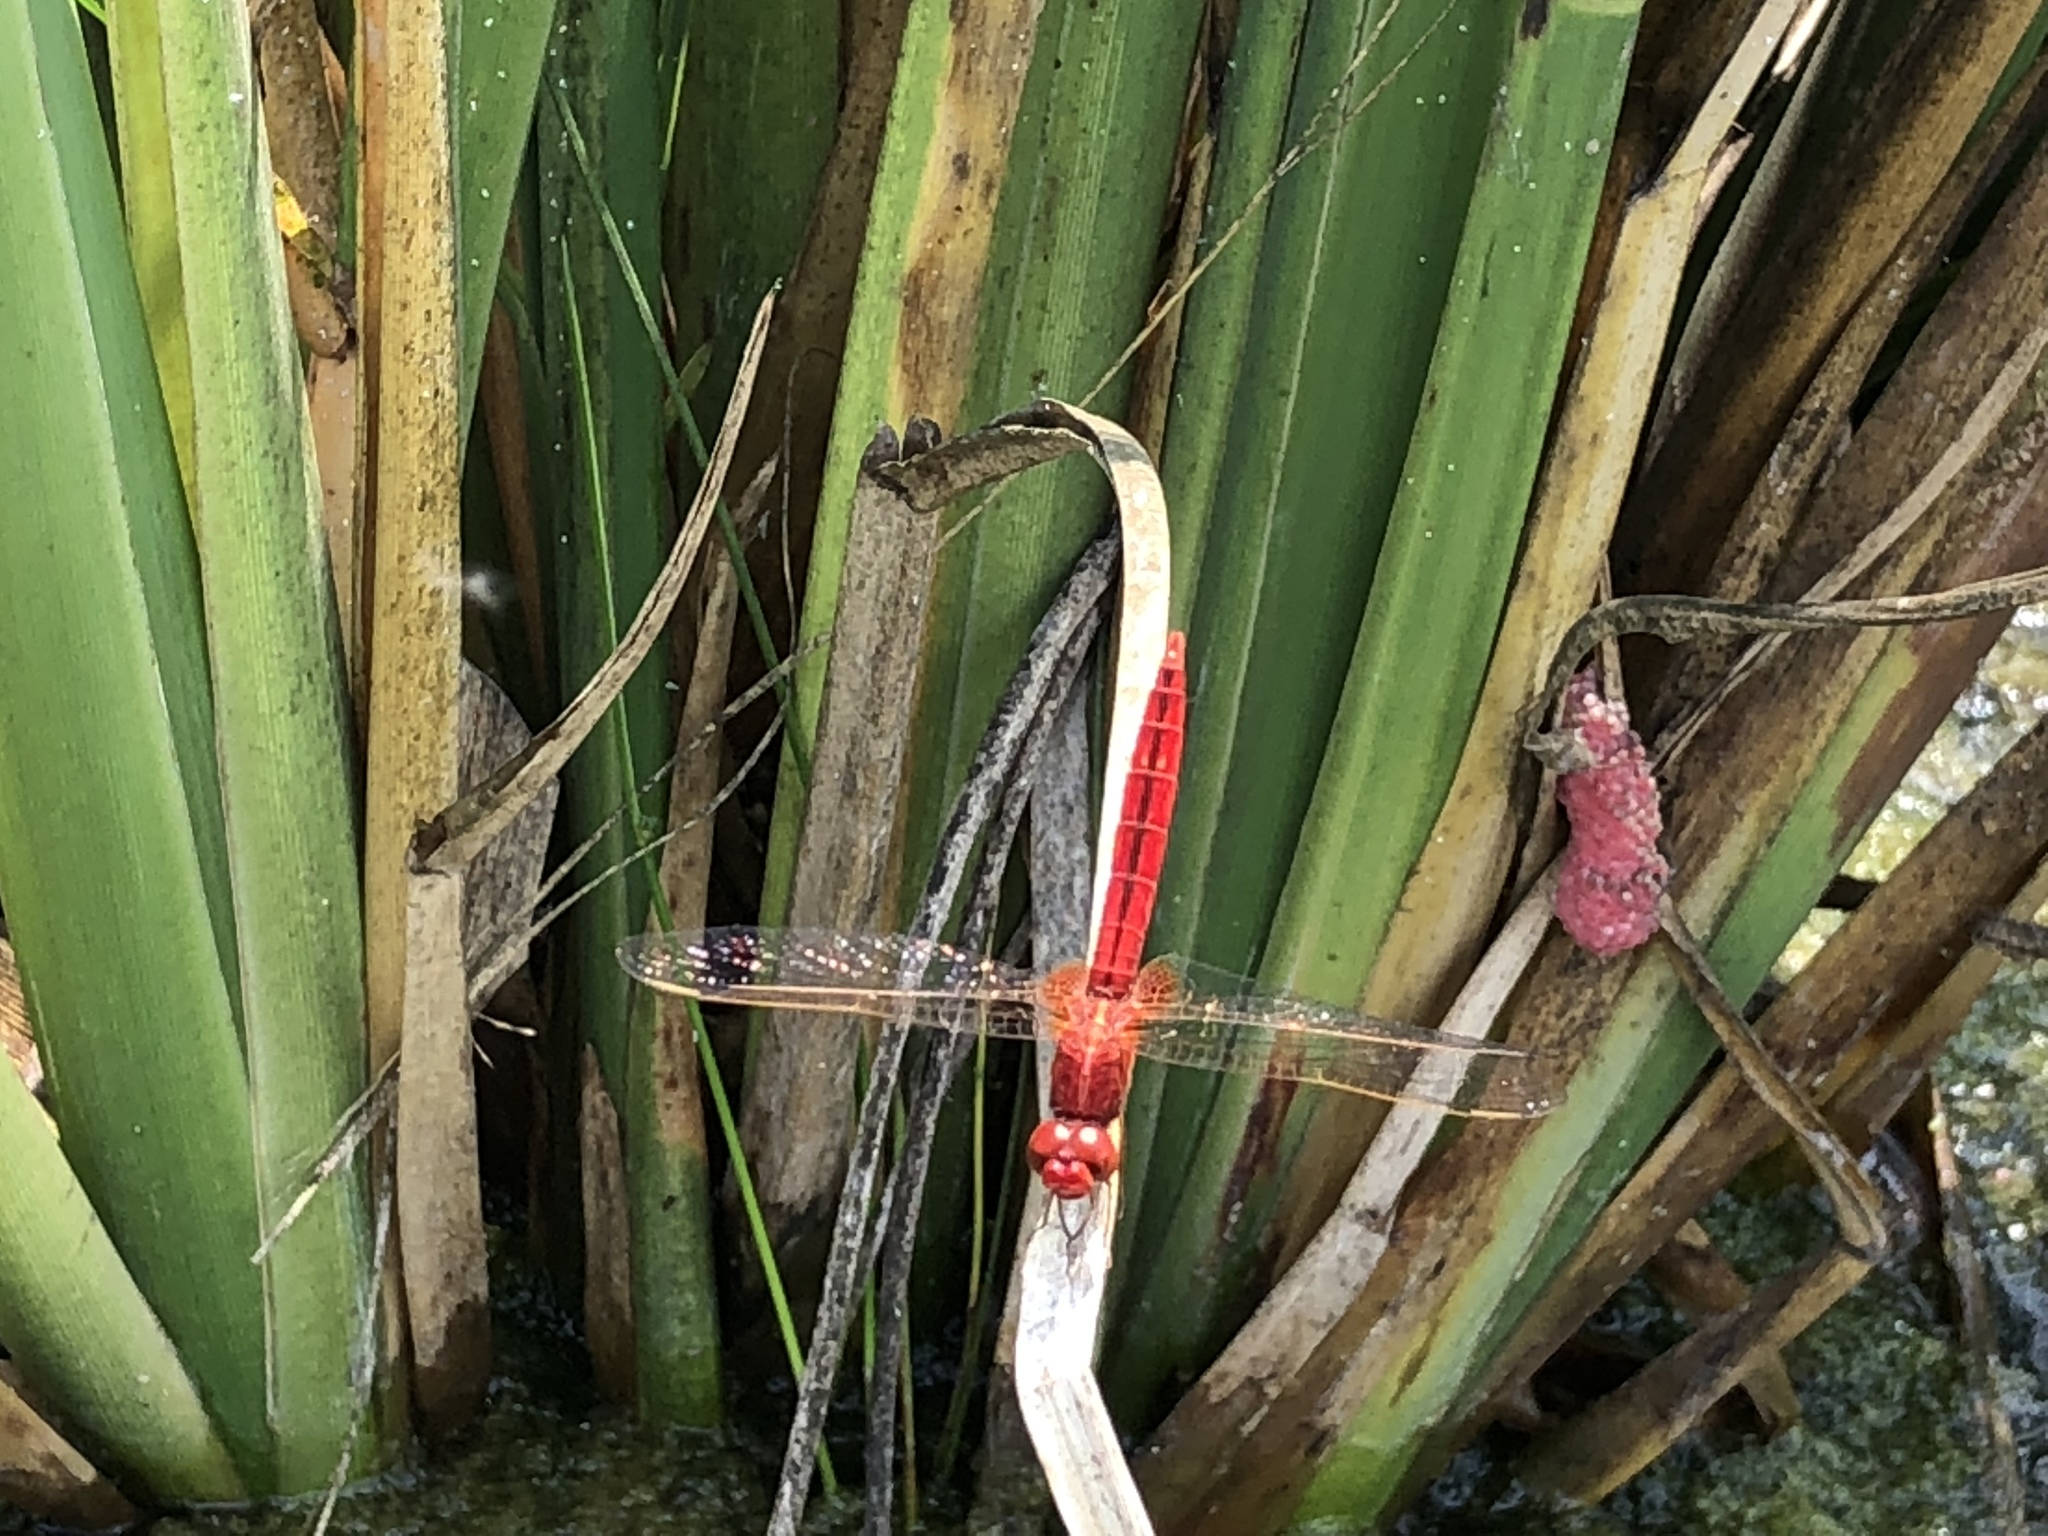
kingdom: Animalia
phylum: Arthropoda
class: Insecta
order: Odonata
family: Libellulidae
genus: Crocothemis
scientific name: Crocothemis servilia
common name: Scarlet skimmer
